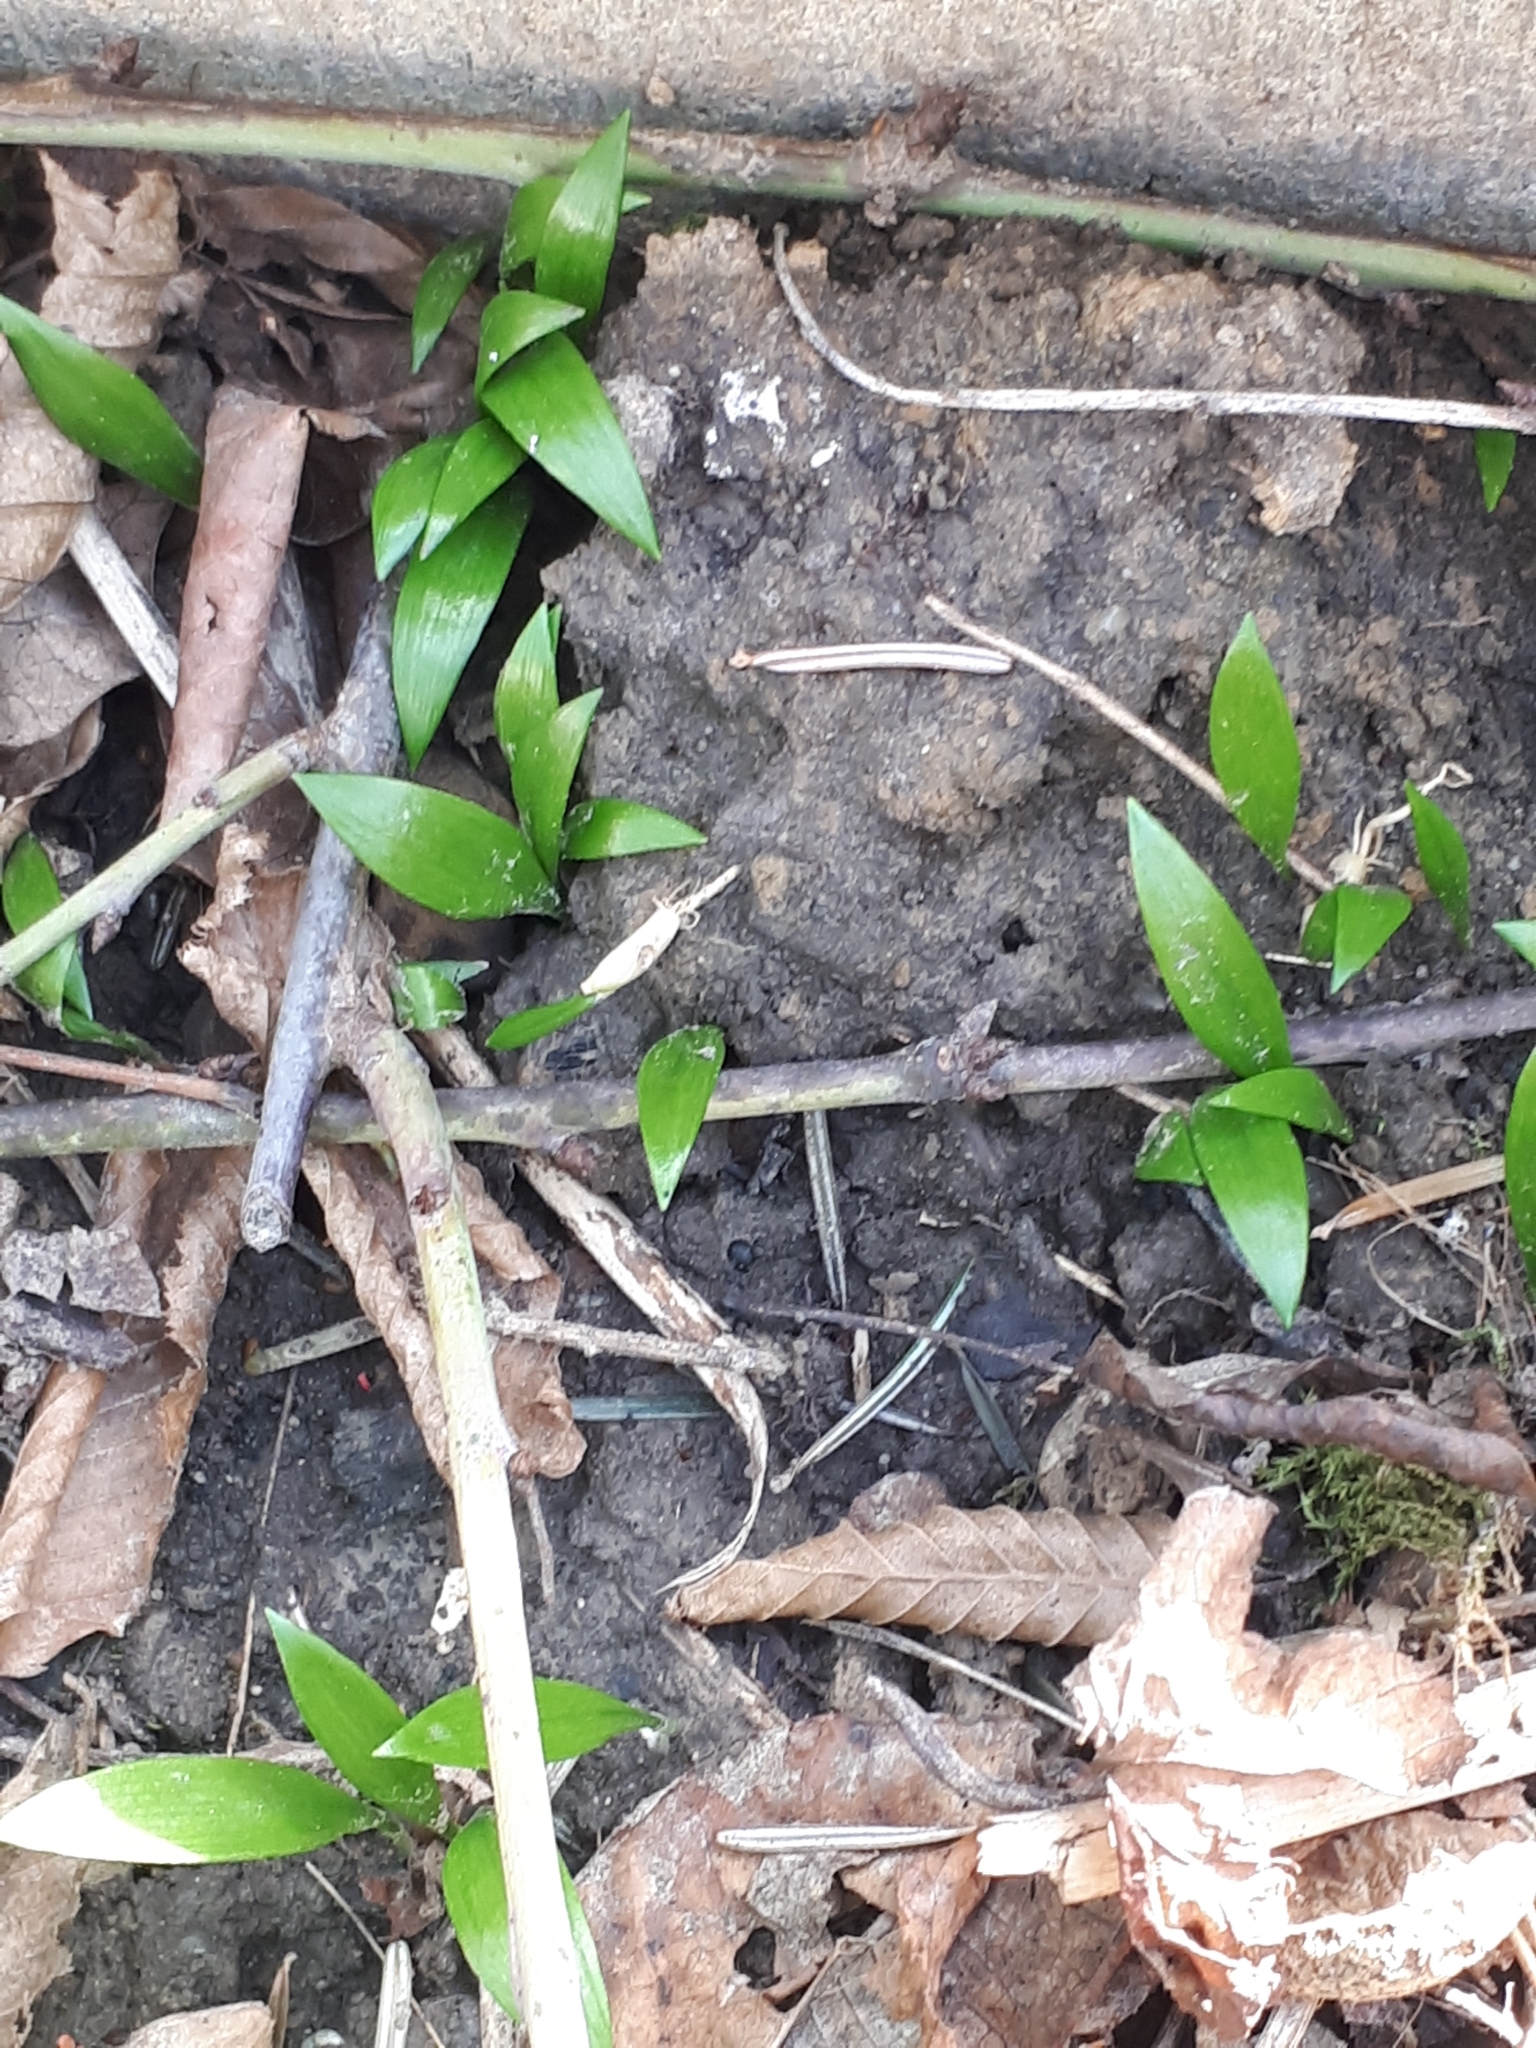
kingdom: Plantae
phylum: Tracheophyta
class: Liliopsida
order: Asparagales
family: Amaryllidaceae
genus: Allium
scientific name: Allium ursinum
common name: Ramsons
